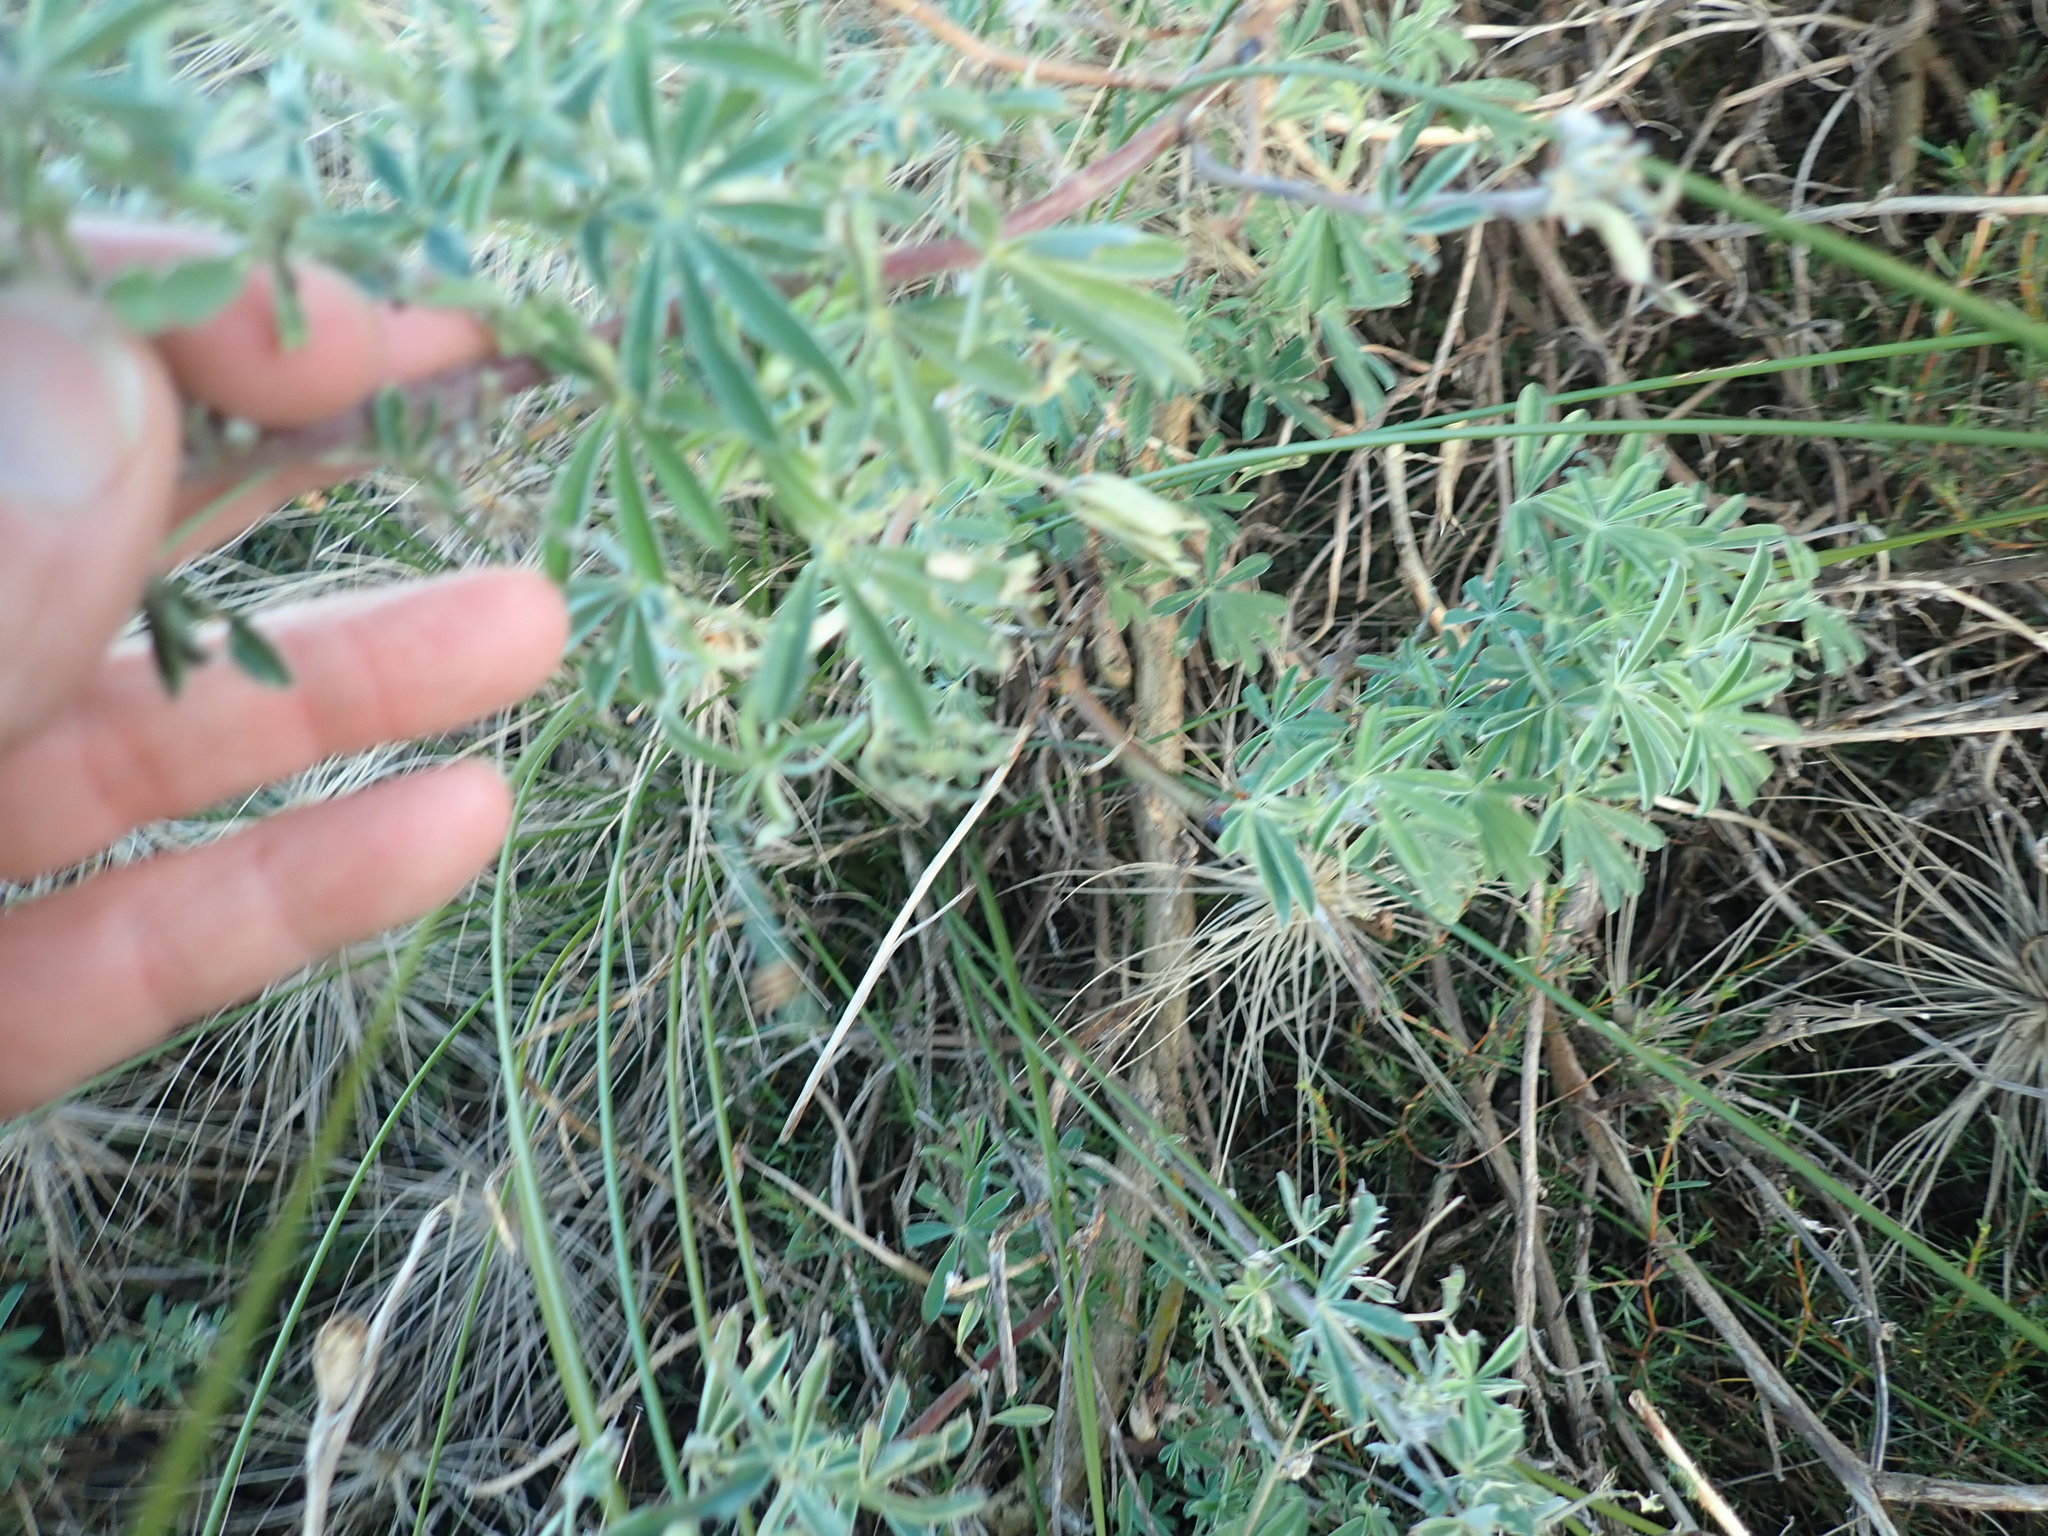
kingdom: Plantae
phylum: Tracheophyta
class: Magnoliopsida
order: Fabales
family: Fabaceae
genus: Lupinus
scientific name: Lupinus arboreus
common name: Yellow bush lupine
